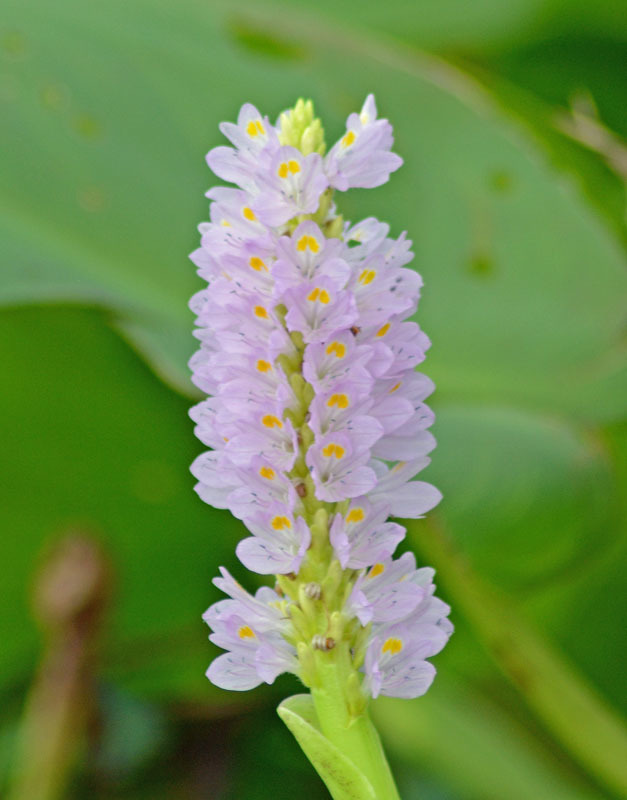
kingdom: Plantae
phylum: Tracheophyta
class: Liliopsida
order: Commelinales
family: Pontederiaceae
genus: Pontederia
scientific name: Pontederia sagittata
